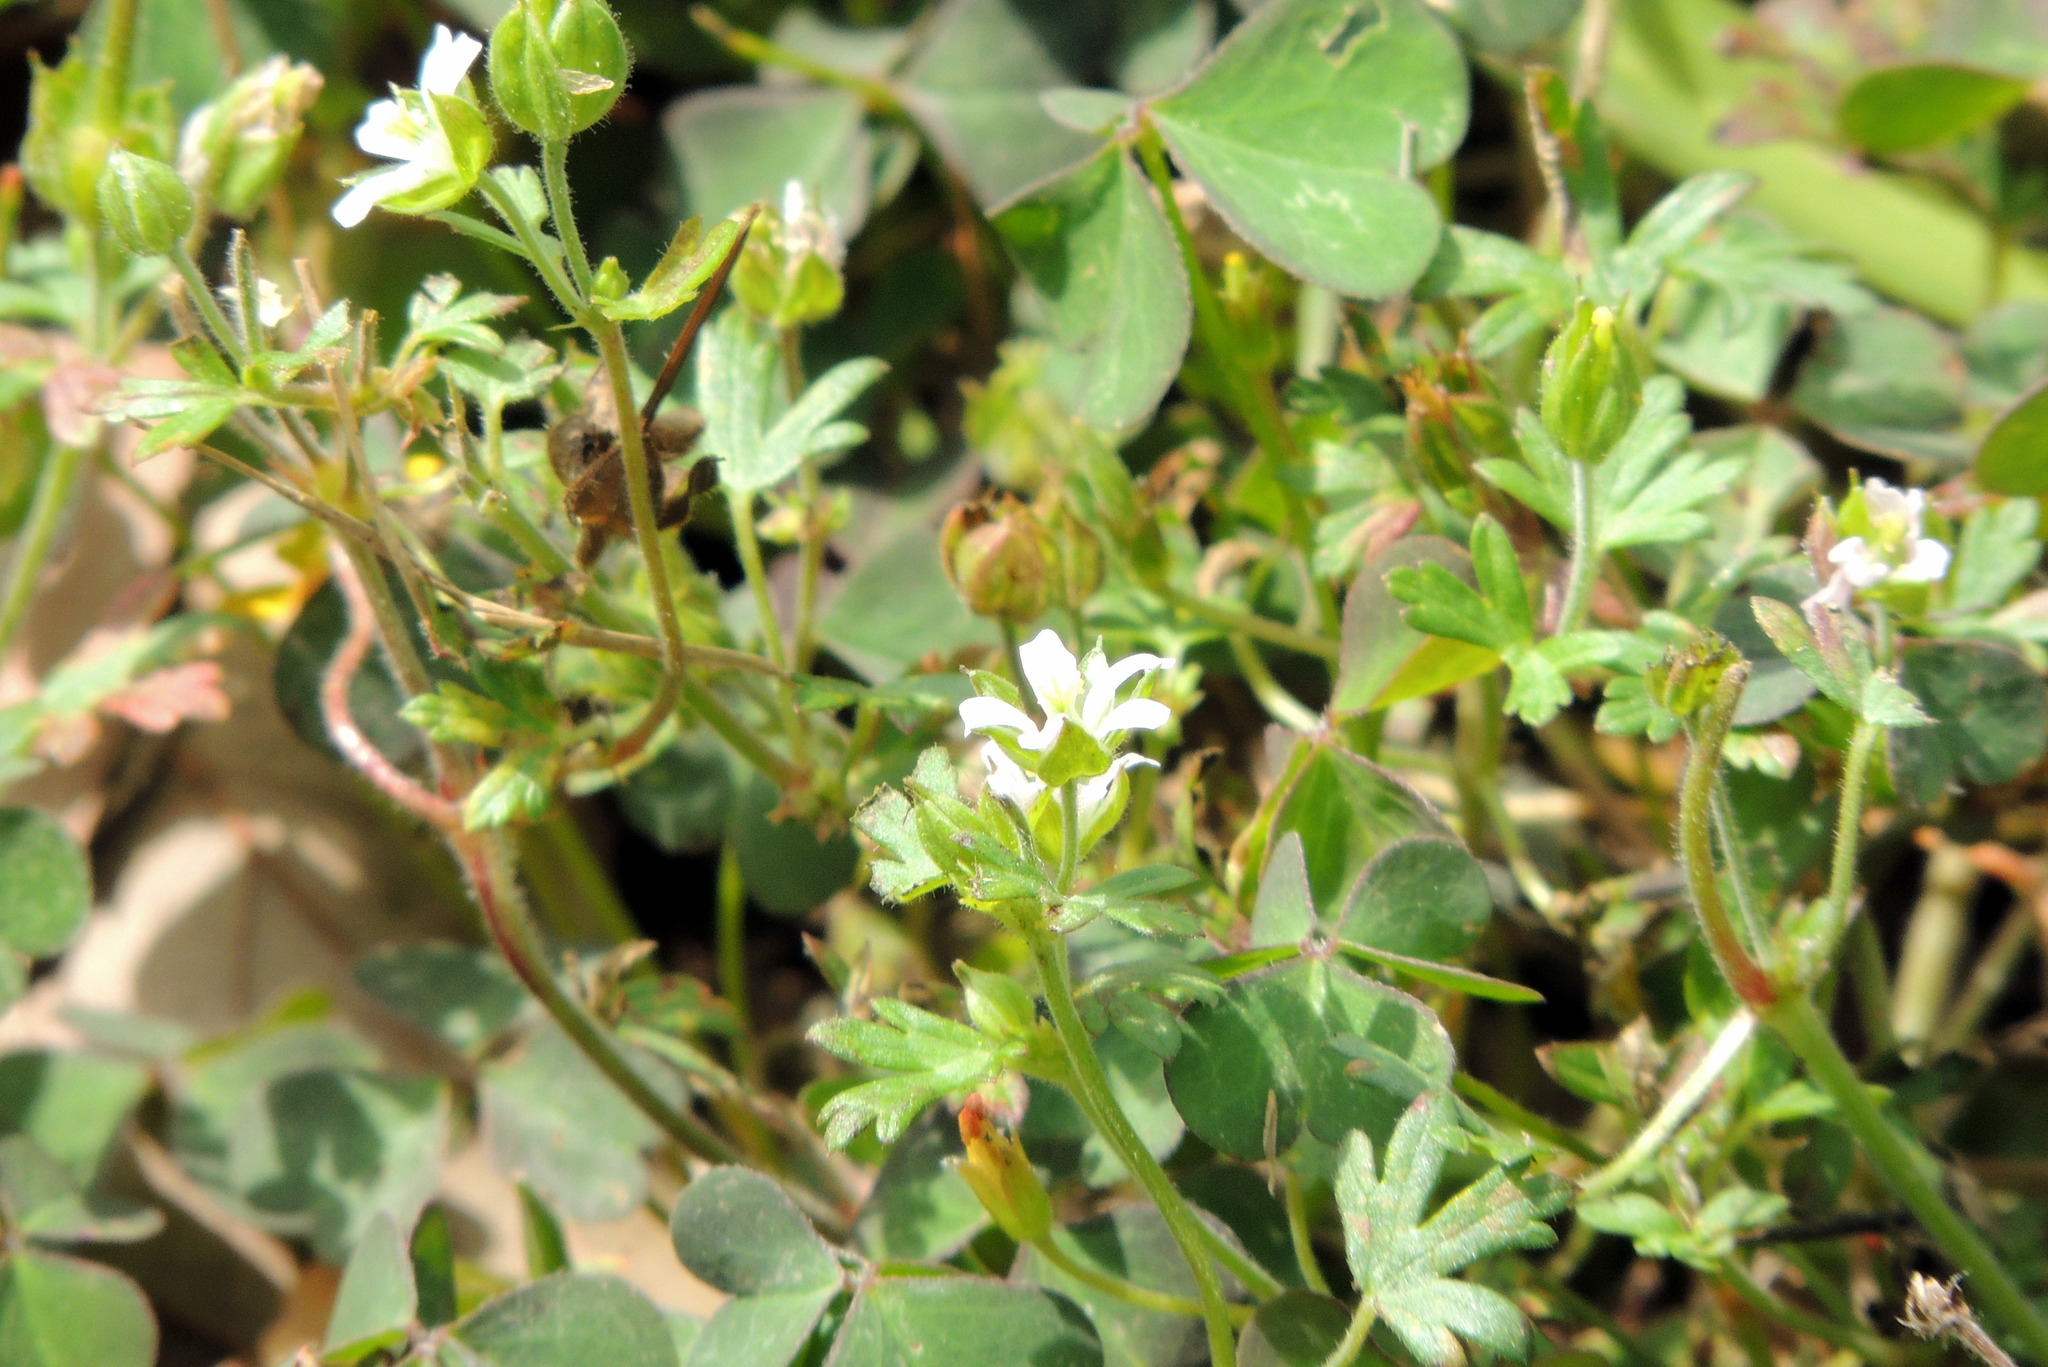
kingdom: Plantae
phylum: Tracheophyta
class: Magnoliopsida
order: Geraniales
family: Geraniaceae
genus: Geranium
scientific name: Geranium carolinianum
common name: Carolina crane's-bill
